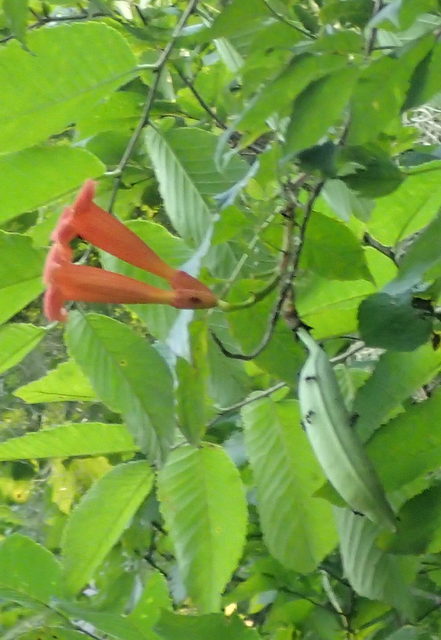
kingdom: Plantae
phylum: Tracheophyta
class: Magnoliopsida
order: Lamiales
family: Bignoniaceae
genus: Campsis
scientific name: Campsis radicans
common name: Trumpet-creeper
